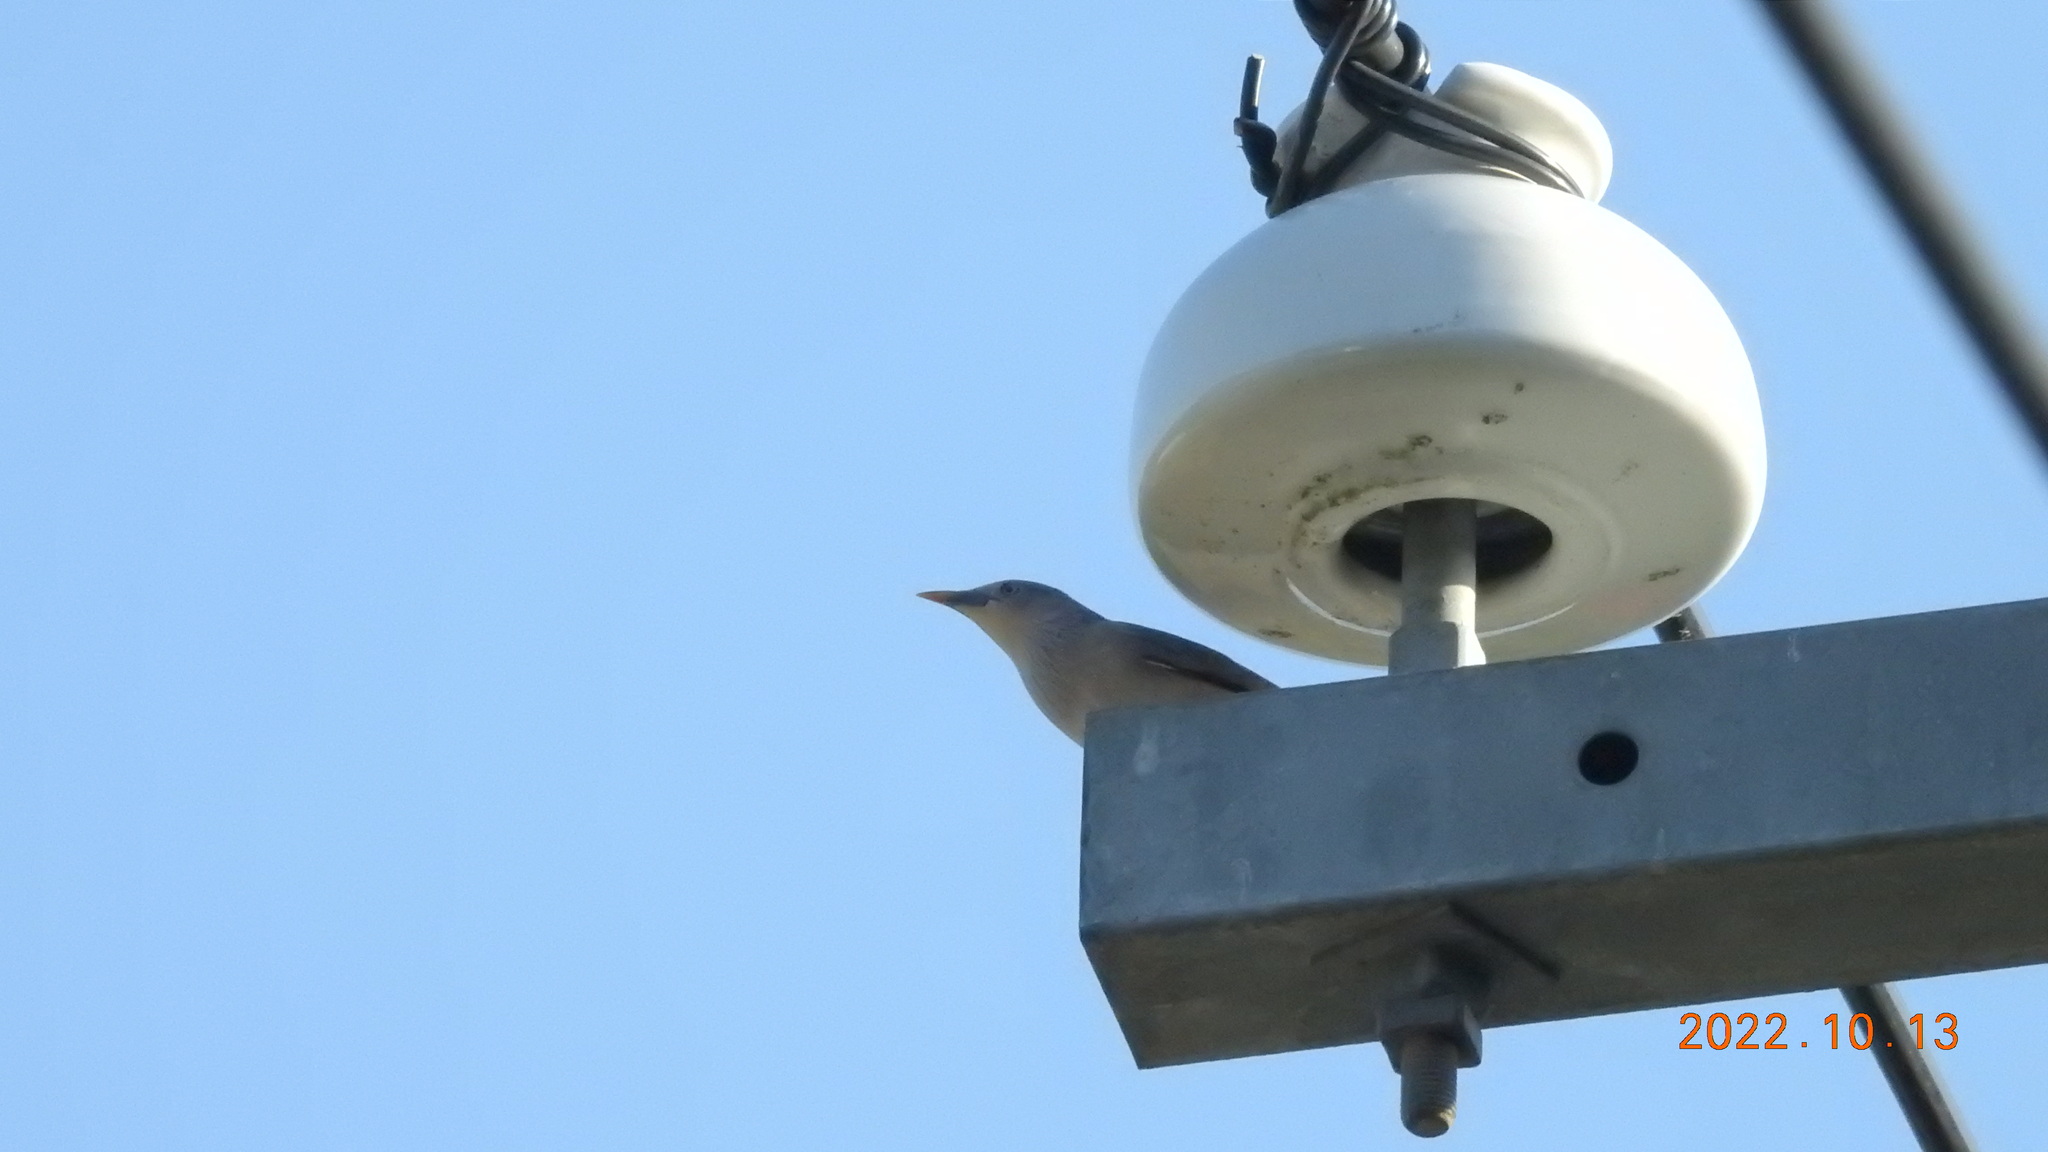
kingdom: Animalia
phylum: Chordata
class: Aves
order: Passeriformes
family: Sturnidae
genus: Sturnia
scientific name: Sturnia malabarica
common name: Chestnut-tailed starling
